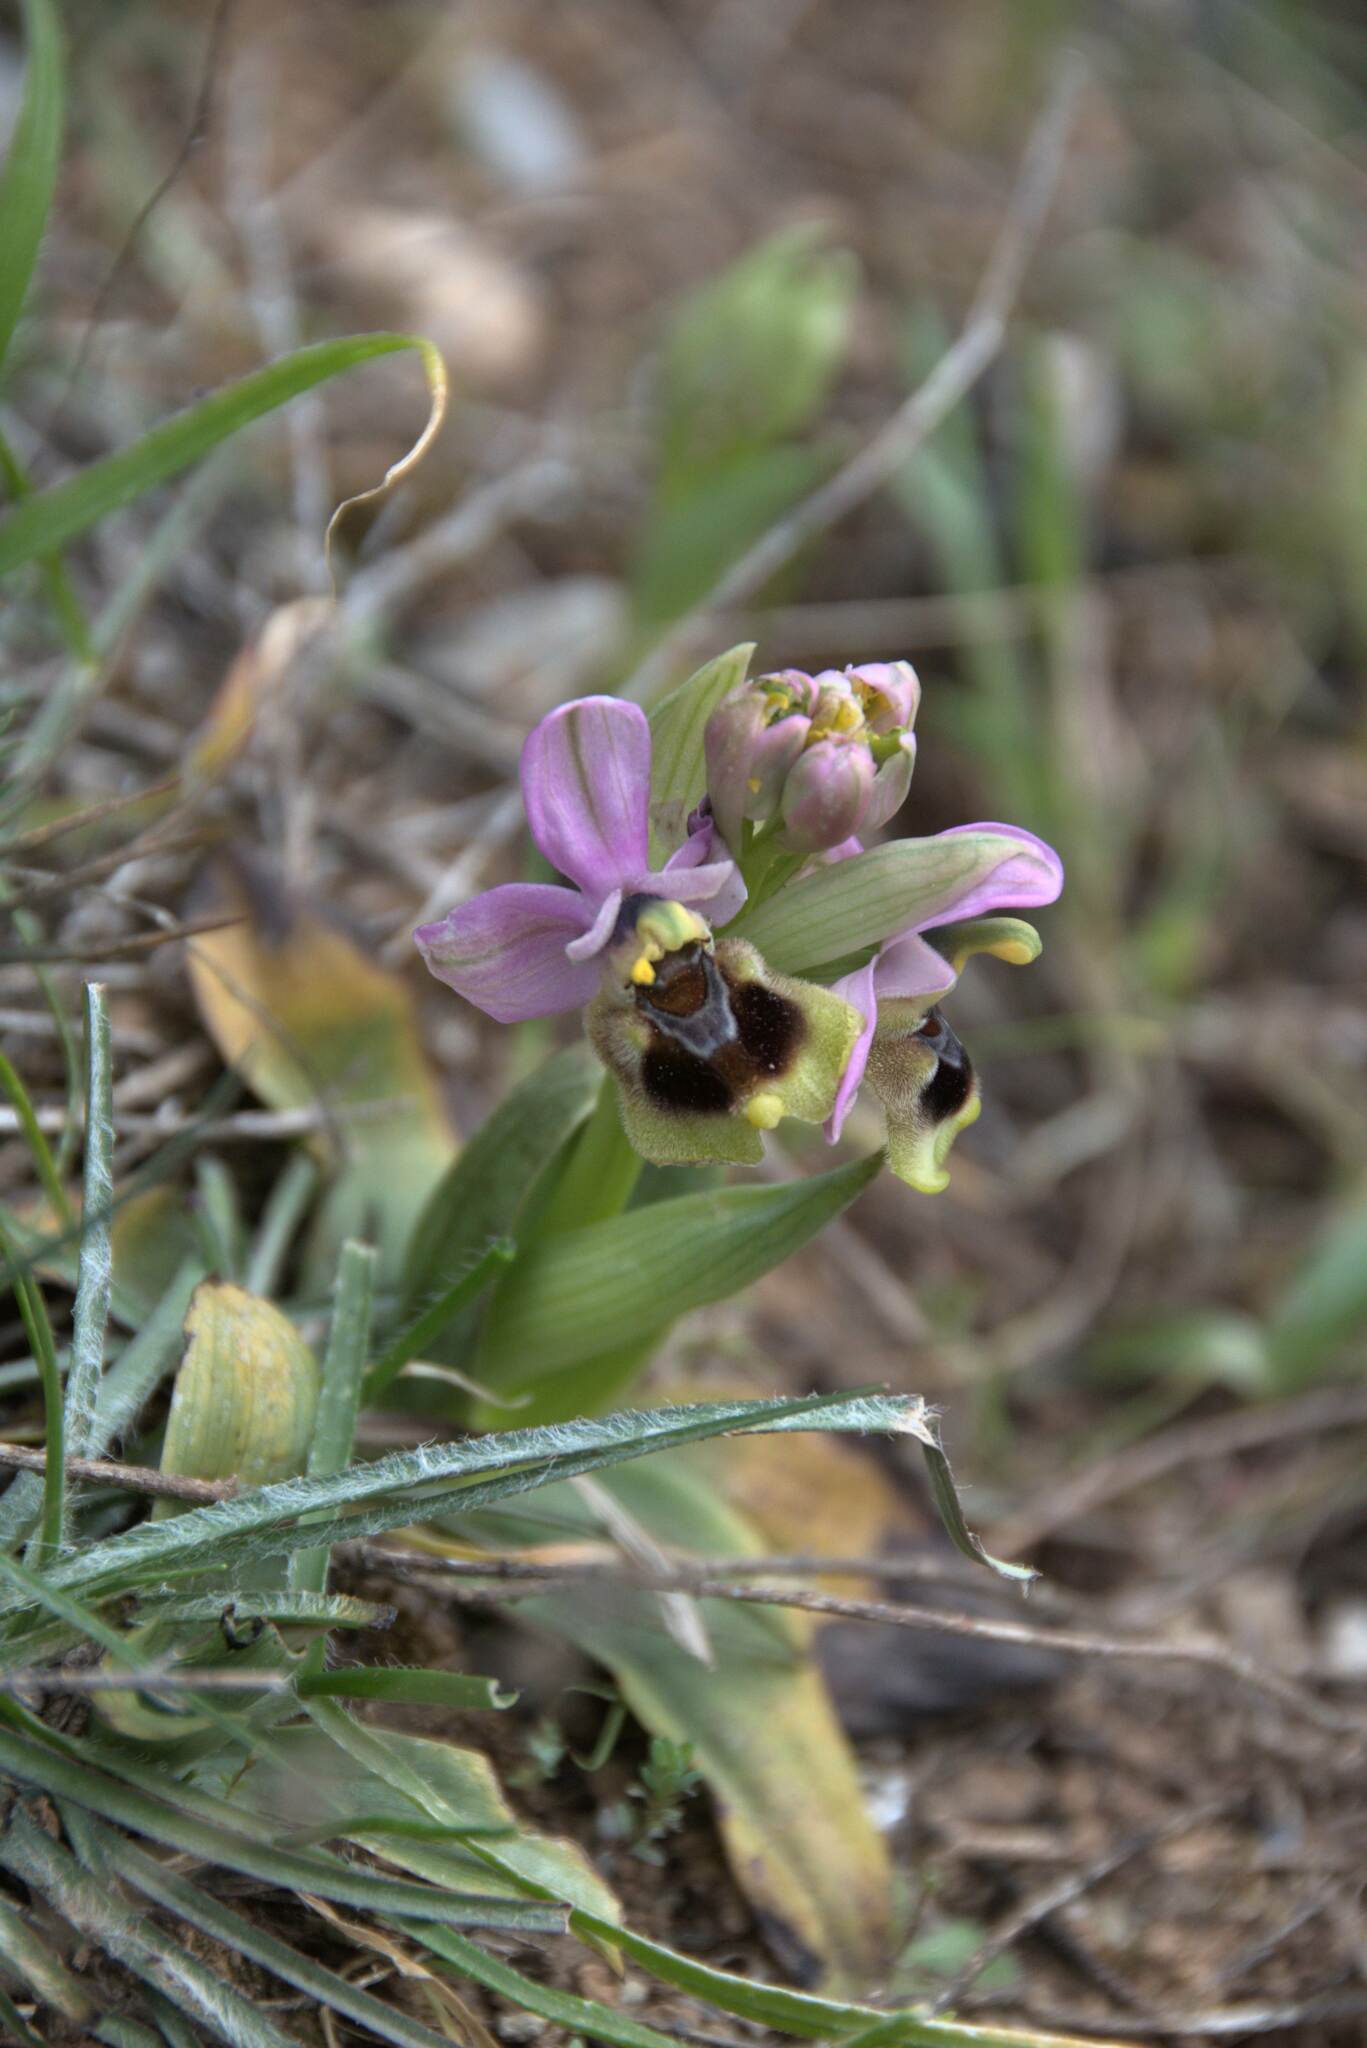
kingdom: Plantae
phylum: Tracheophyta
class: Liliopsida
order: Asparagales
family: Orchidaceae
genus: Ophrys
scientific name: Ophrys tenthredinifera
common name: Sawfly orchid
